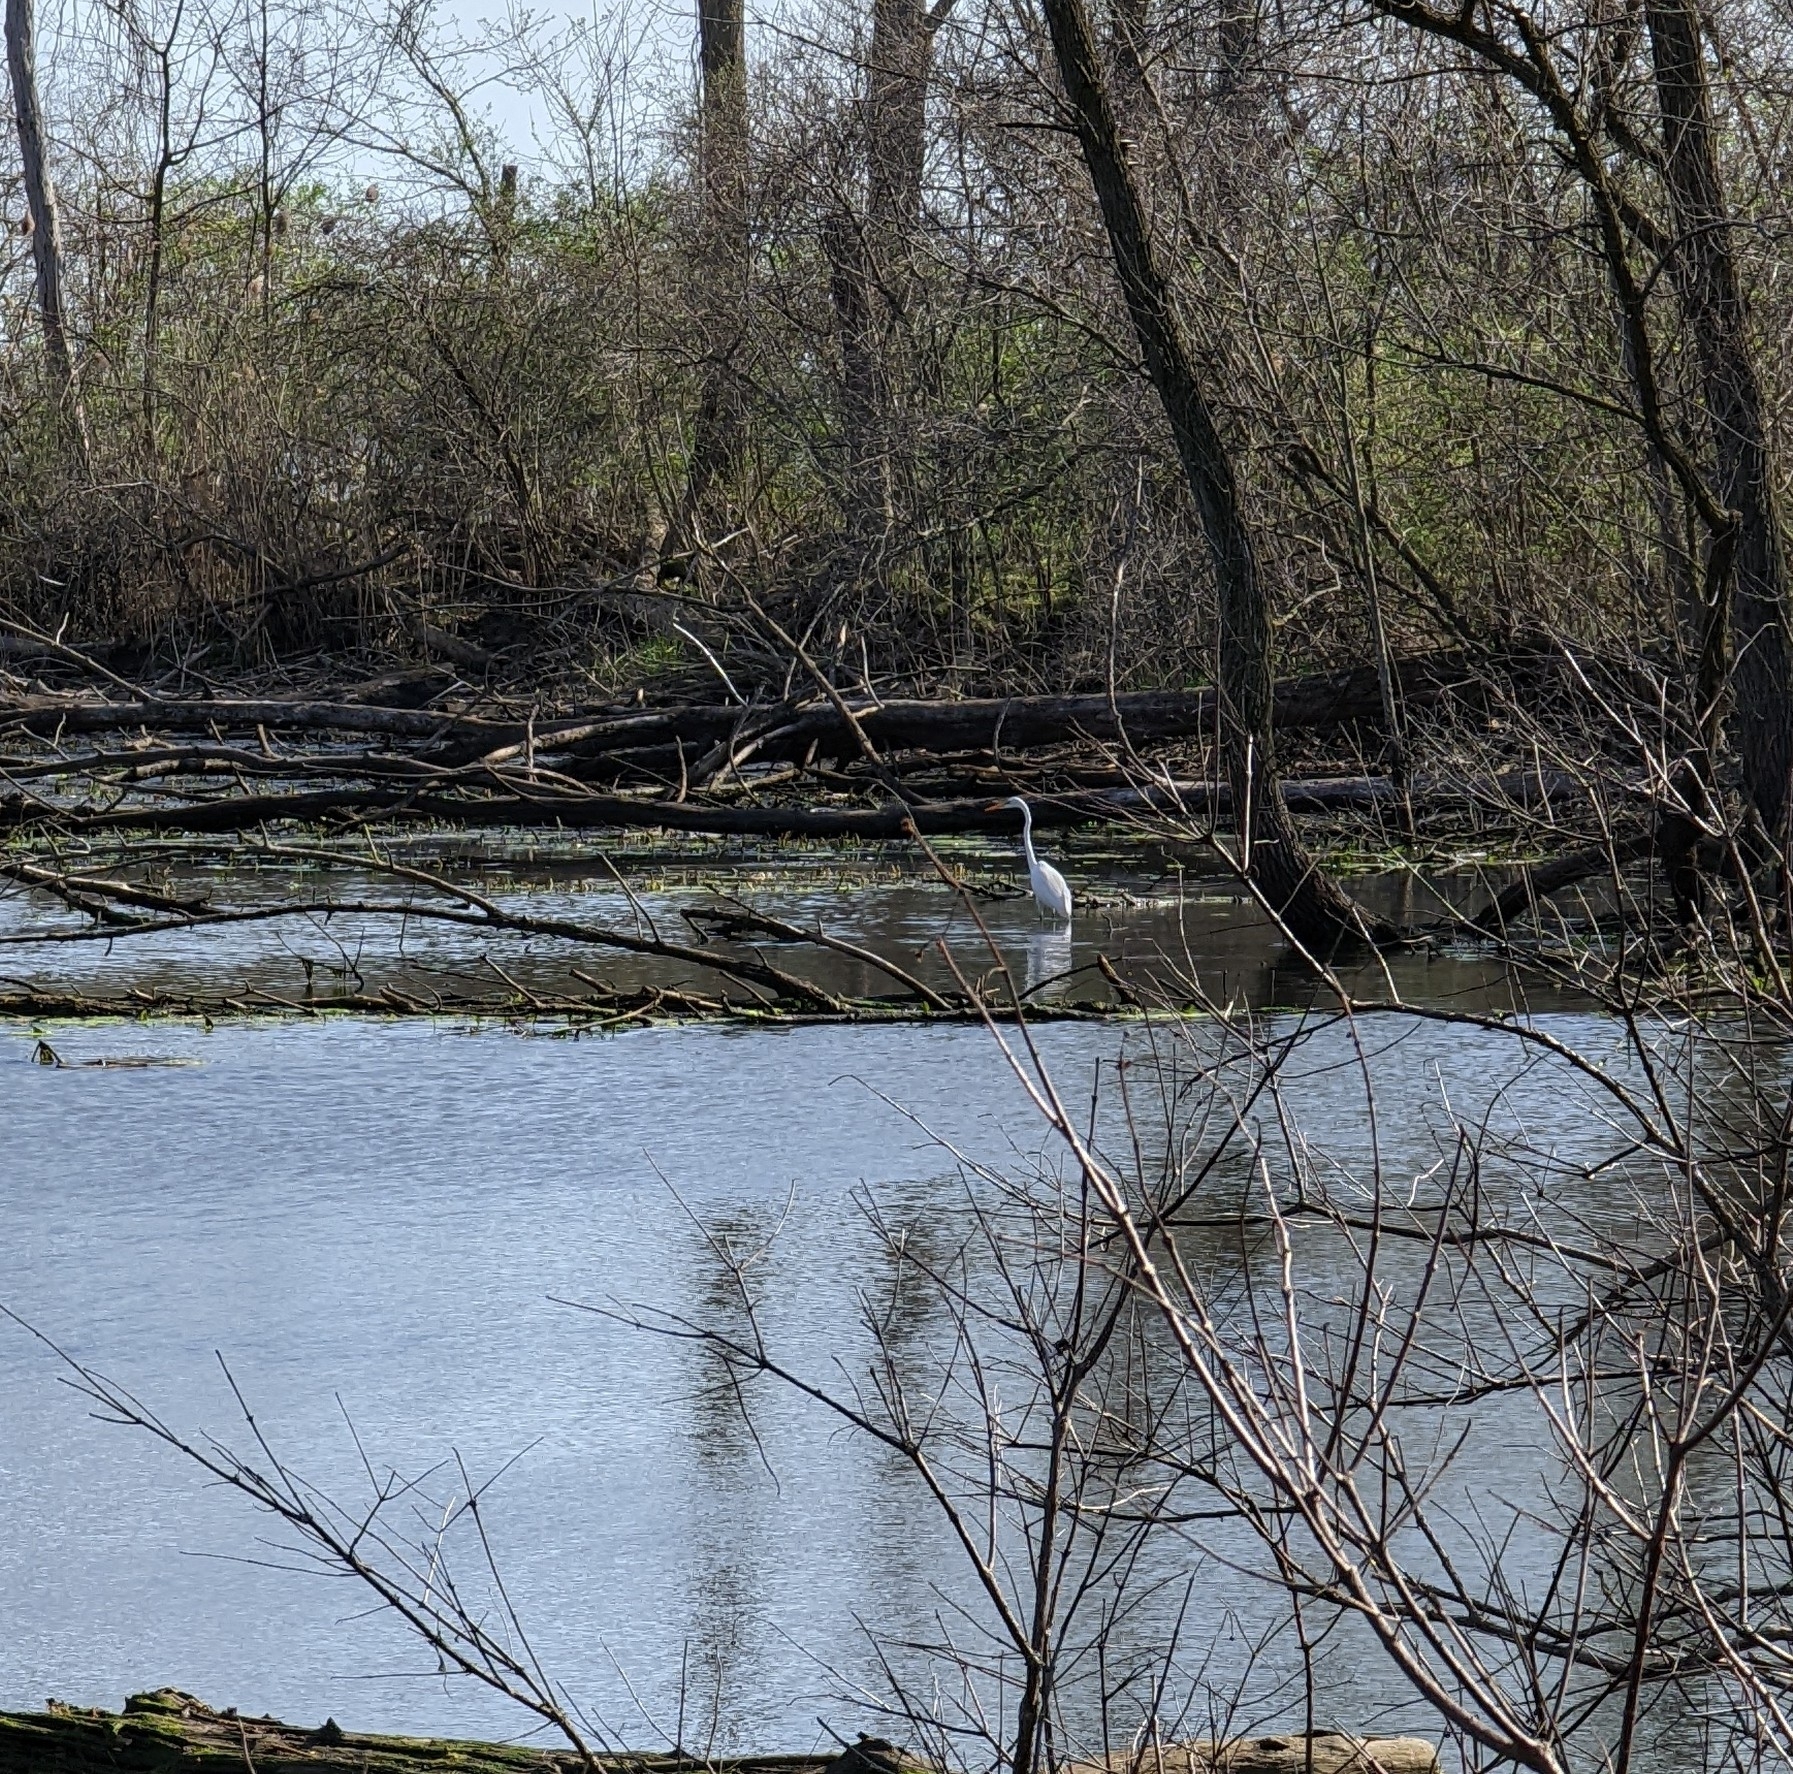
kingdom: Animalia
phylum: Chordata
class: Aves
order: Pelecaniformes
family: Ardeidae
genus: Ardea
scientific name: Ardea alba
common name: Great egret
